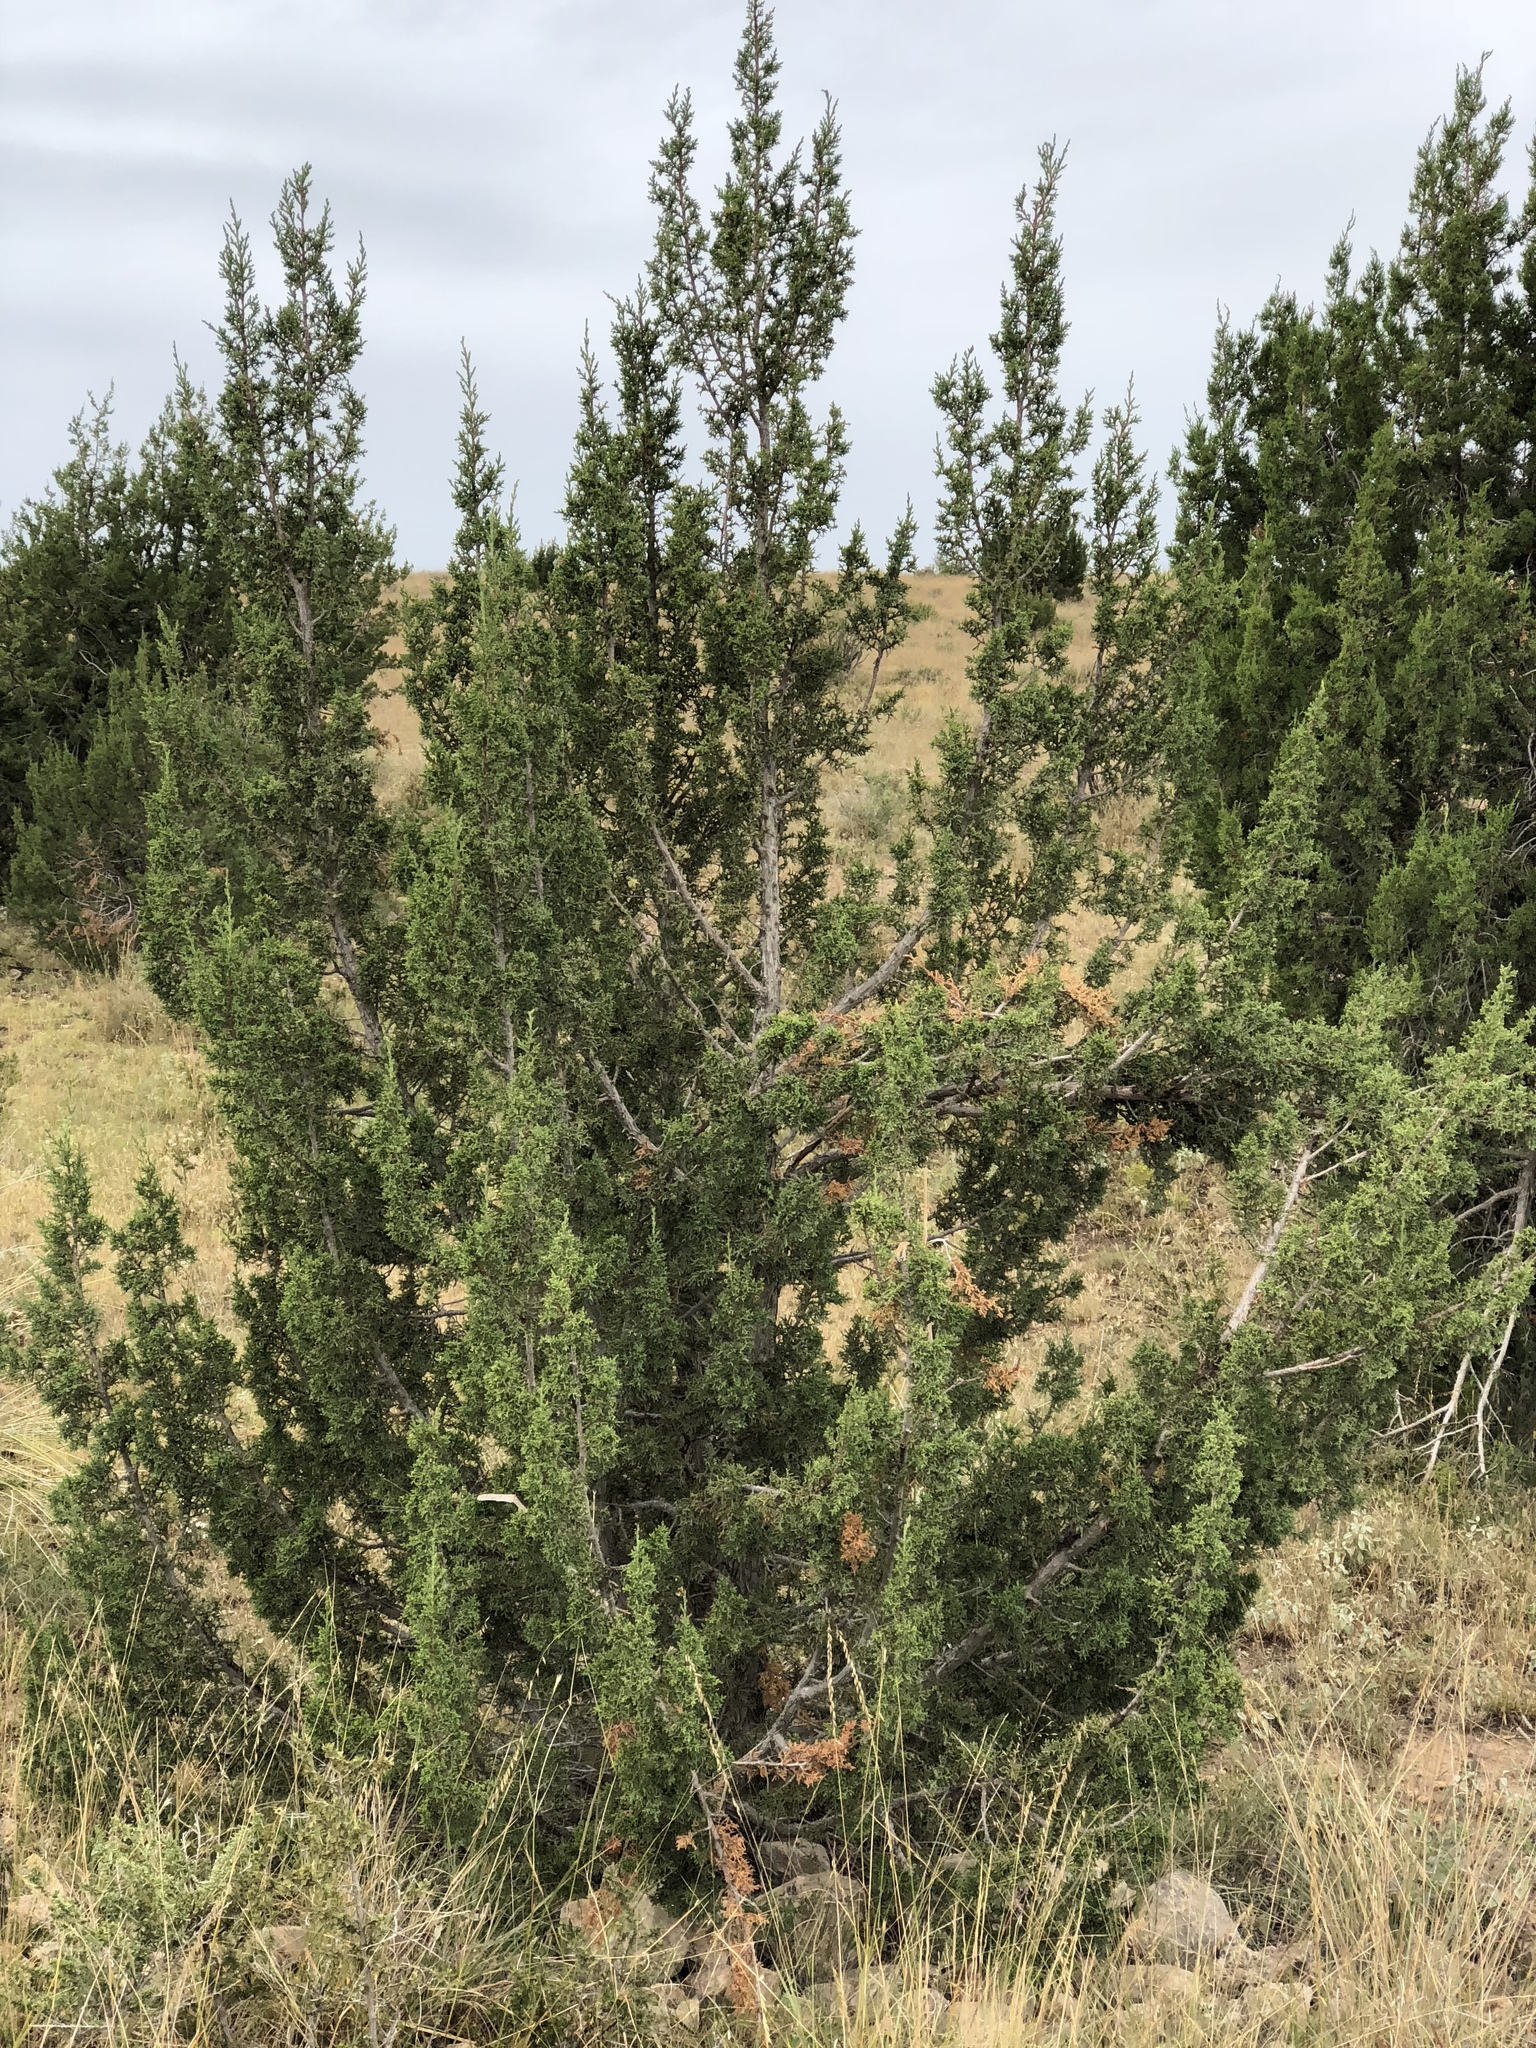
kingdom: Plantae
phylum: Tracheophyta
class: Pinopsida
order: Pinales
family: Cupressaceae
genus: Juniperus
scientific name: Juniperus monosperma
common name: One-seed juniper
